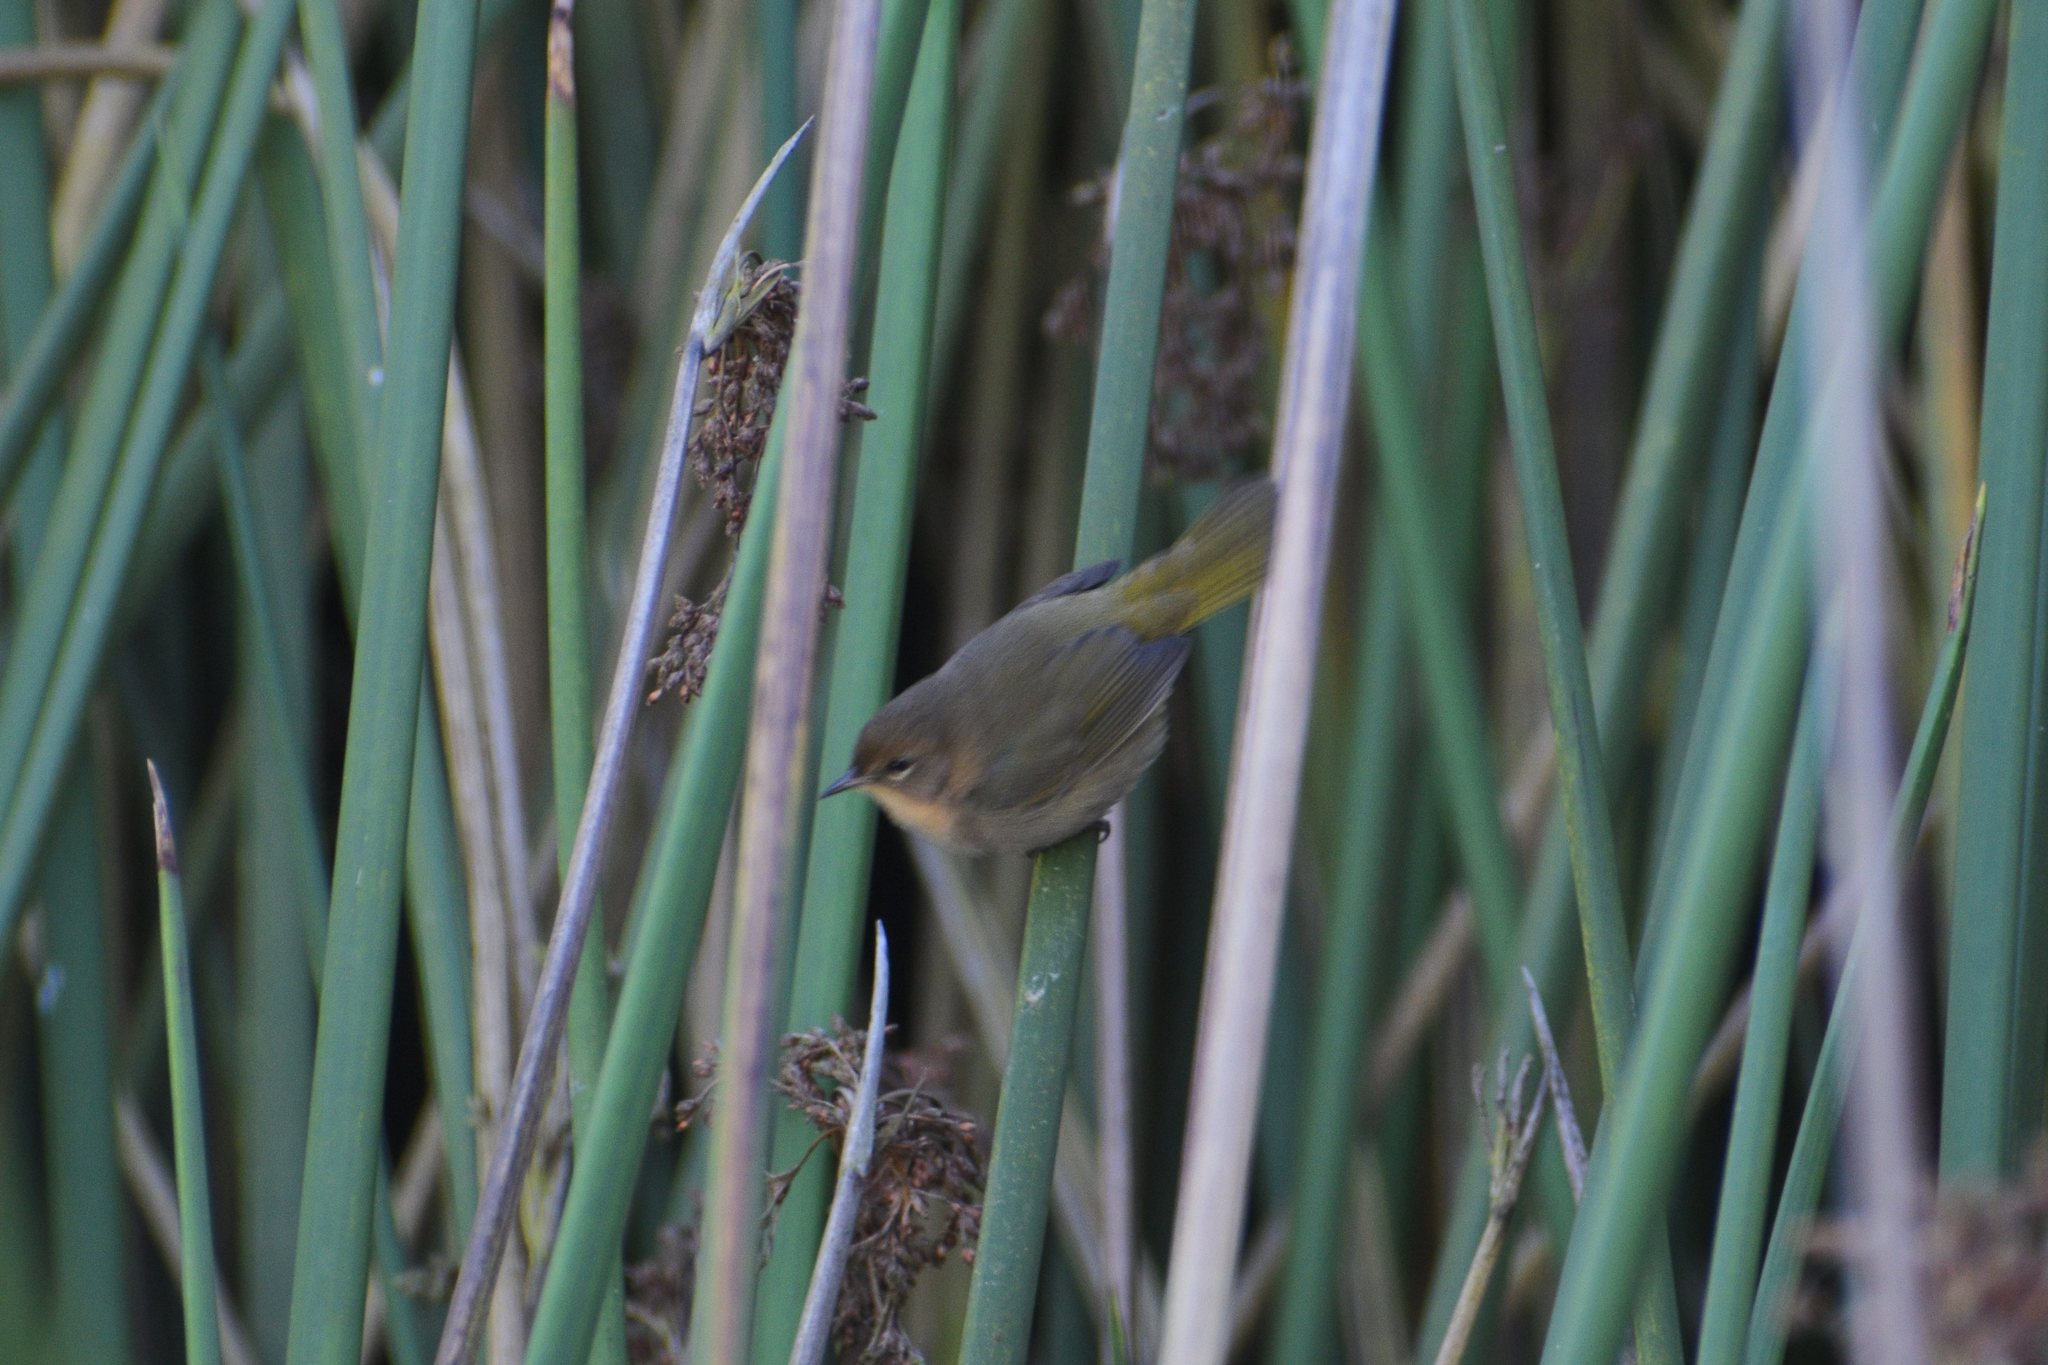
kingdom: Animalia
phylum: Chordata
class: Aves
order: Passeriformes
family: Parulidae
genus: Geothlypis
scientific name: Geothlypis trichas
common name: Common yellowthroat
